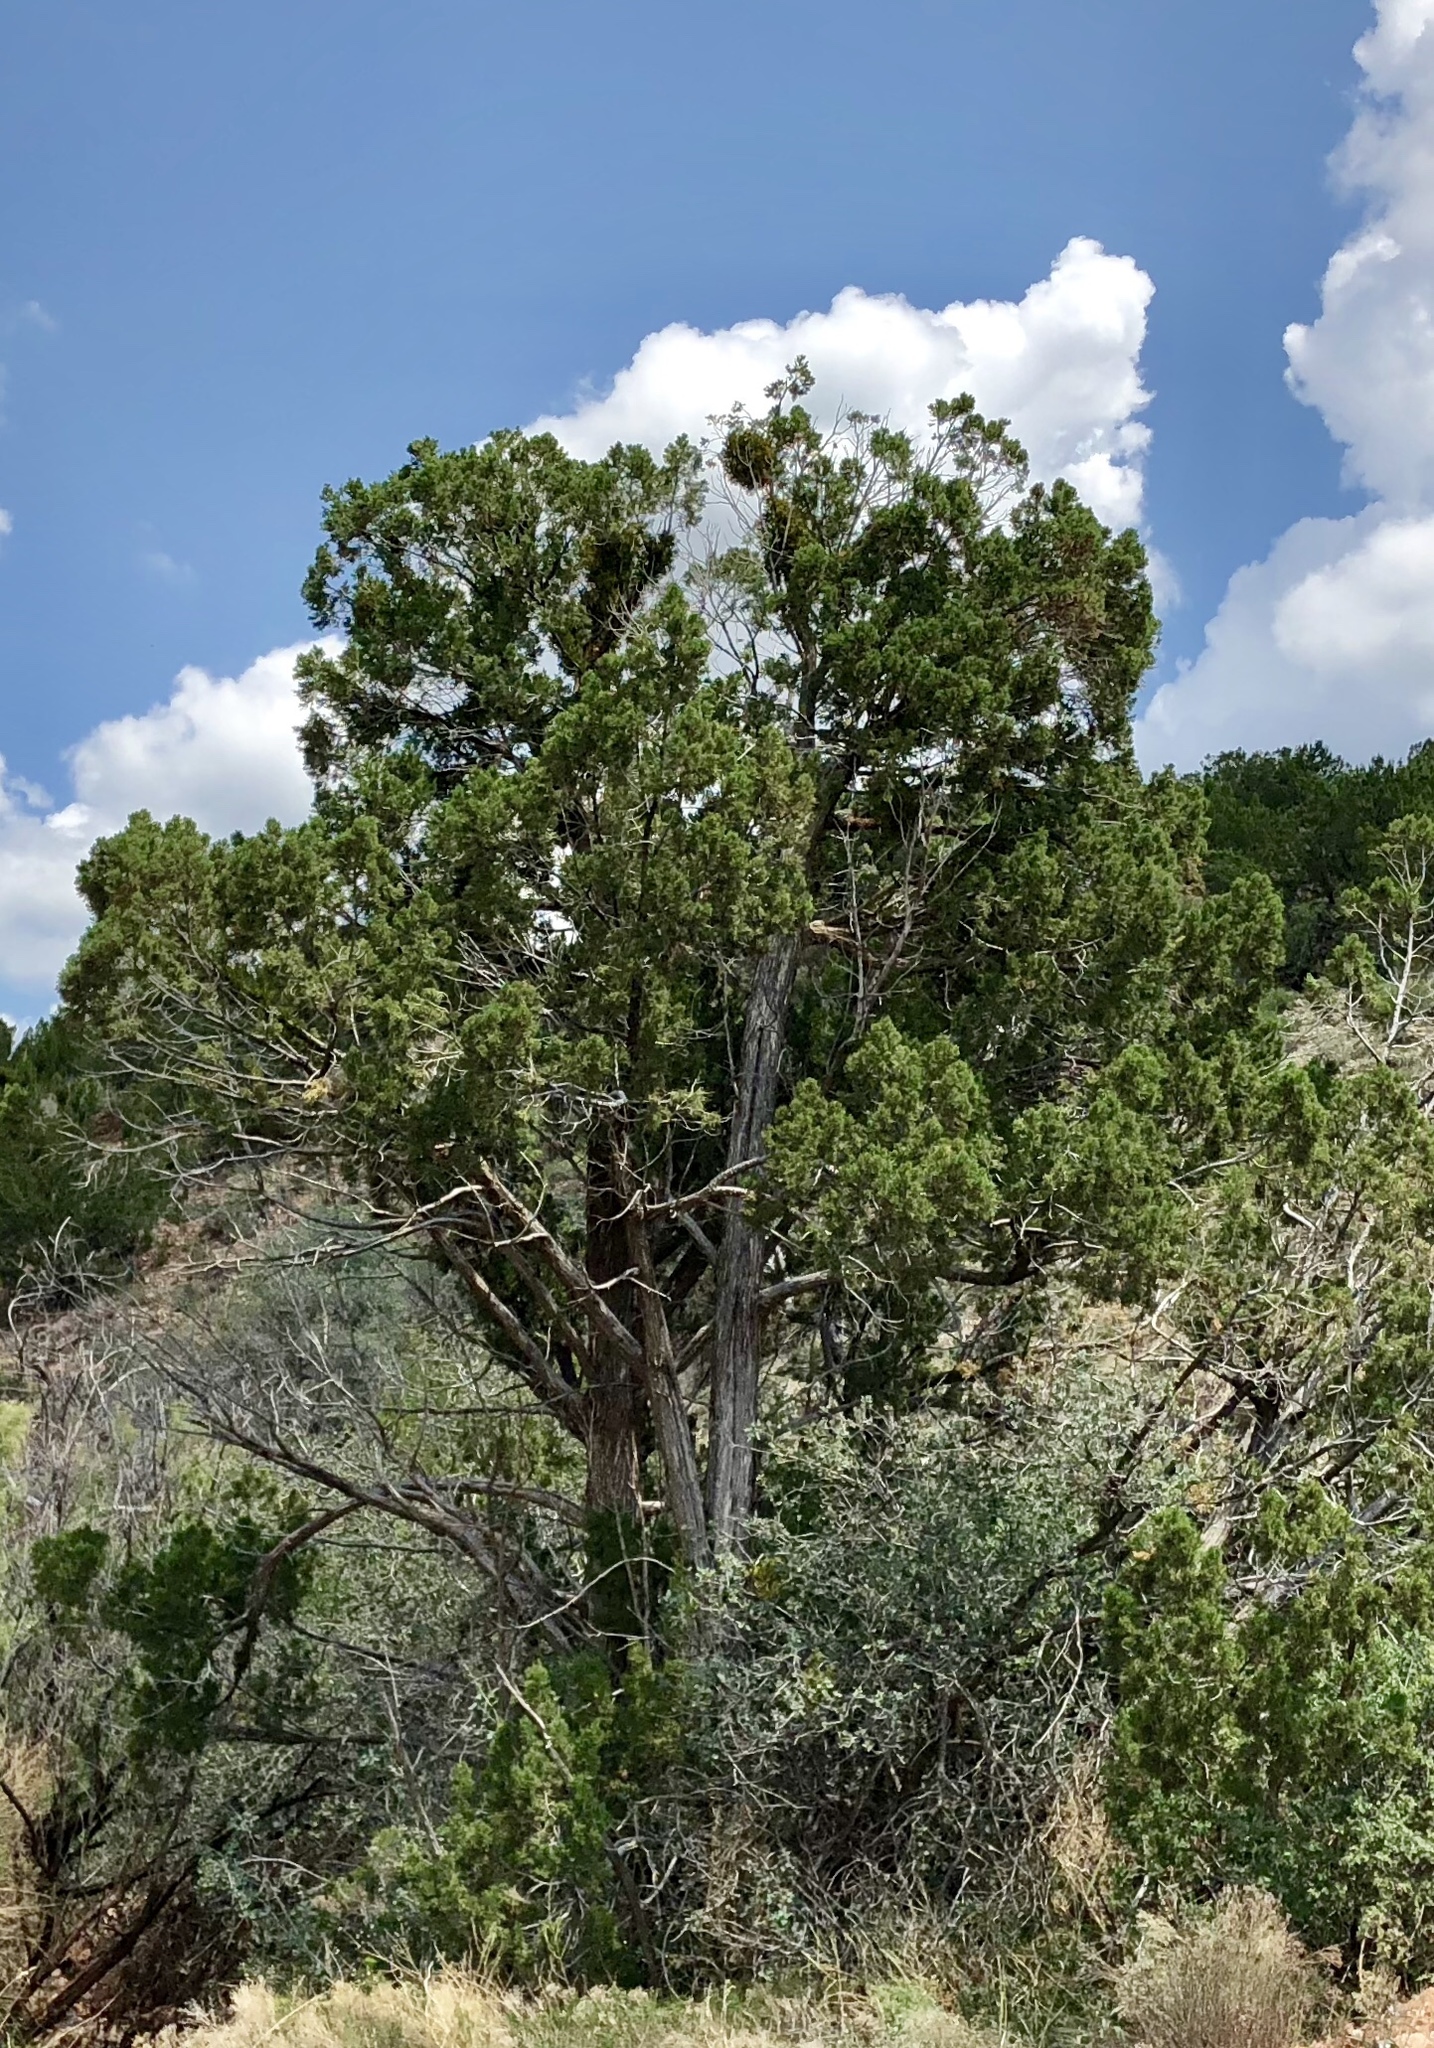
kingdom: Plantae
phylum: Tracheophyta
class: Pinopsida
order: Pinales
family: Cupressaceae
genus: Juniperus
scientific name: Juniperus monosperma
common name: One-seed juniper
